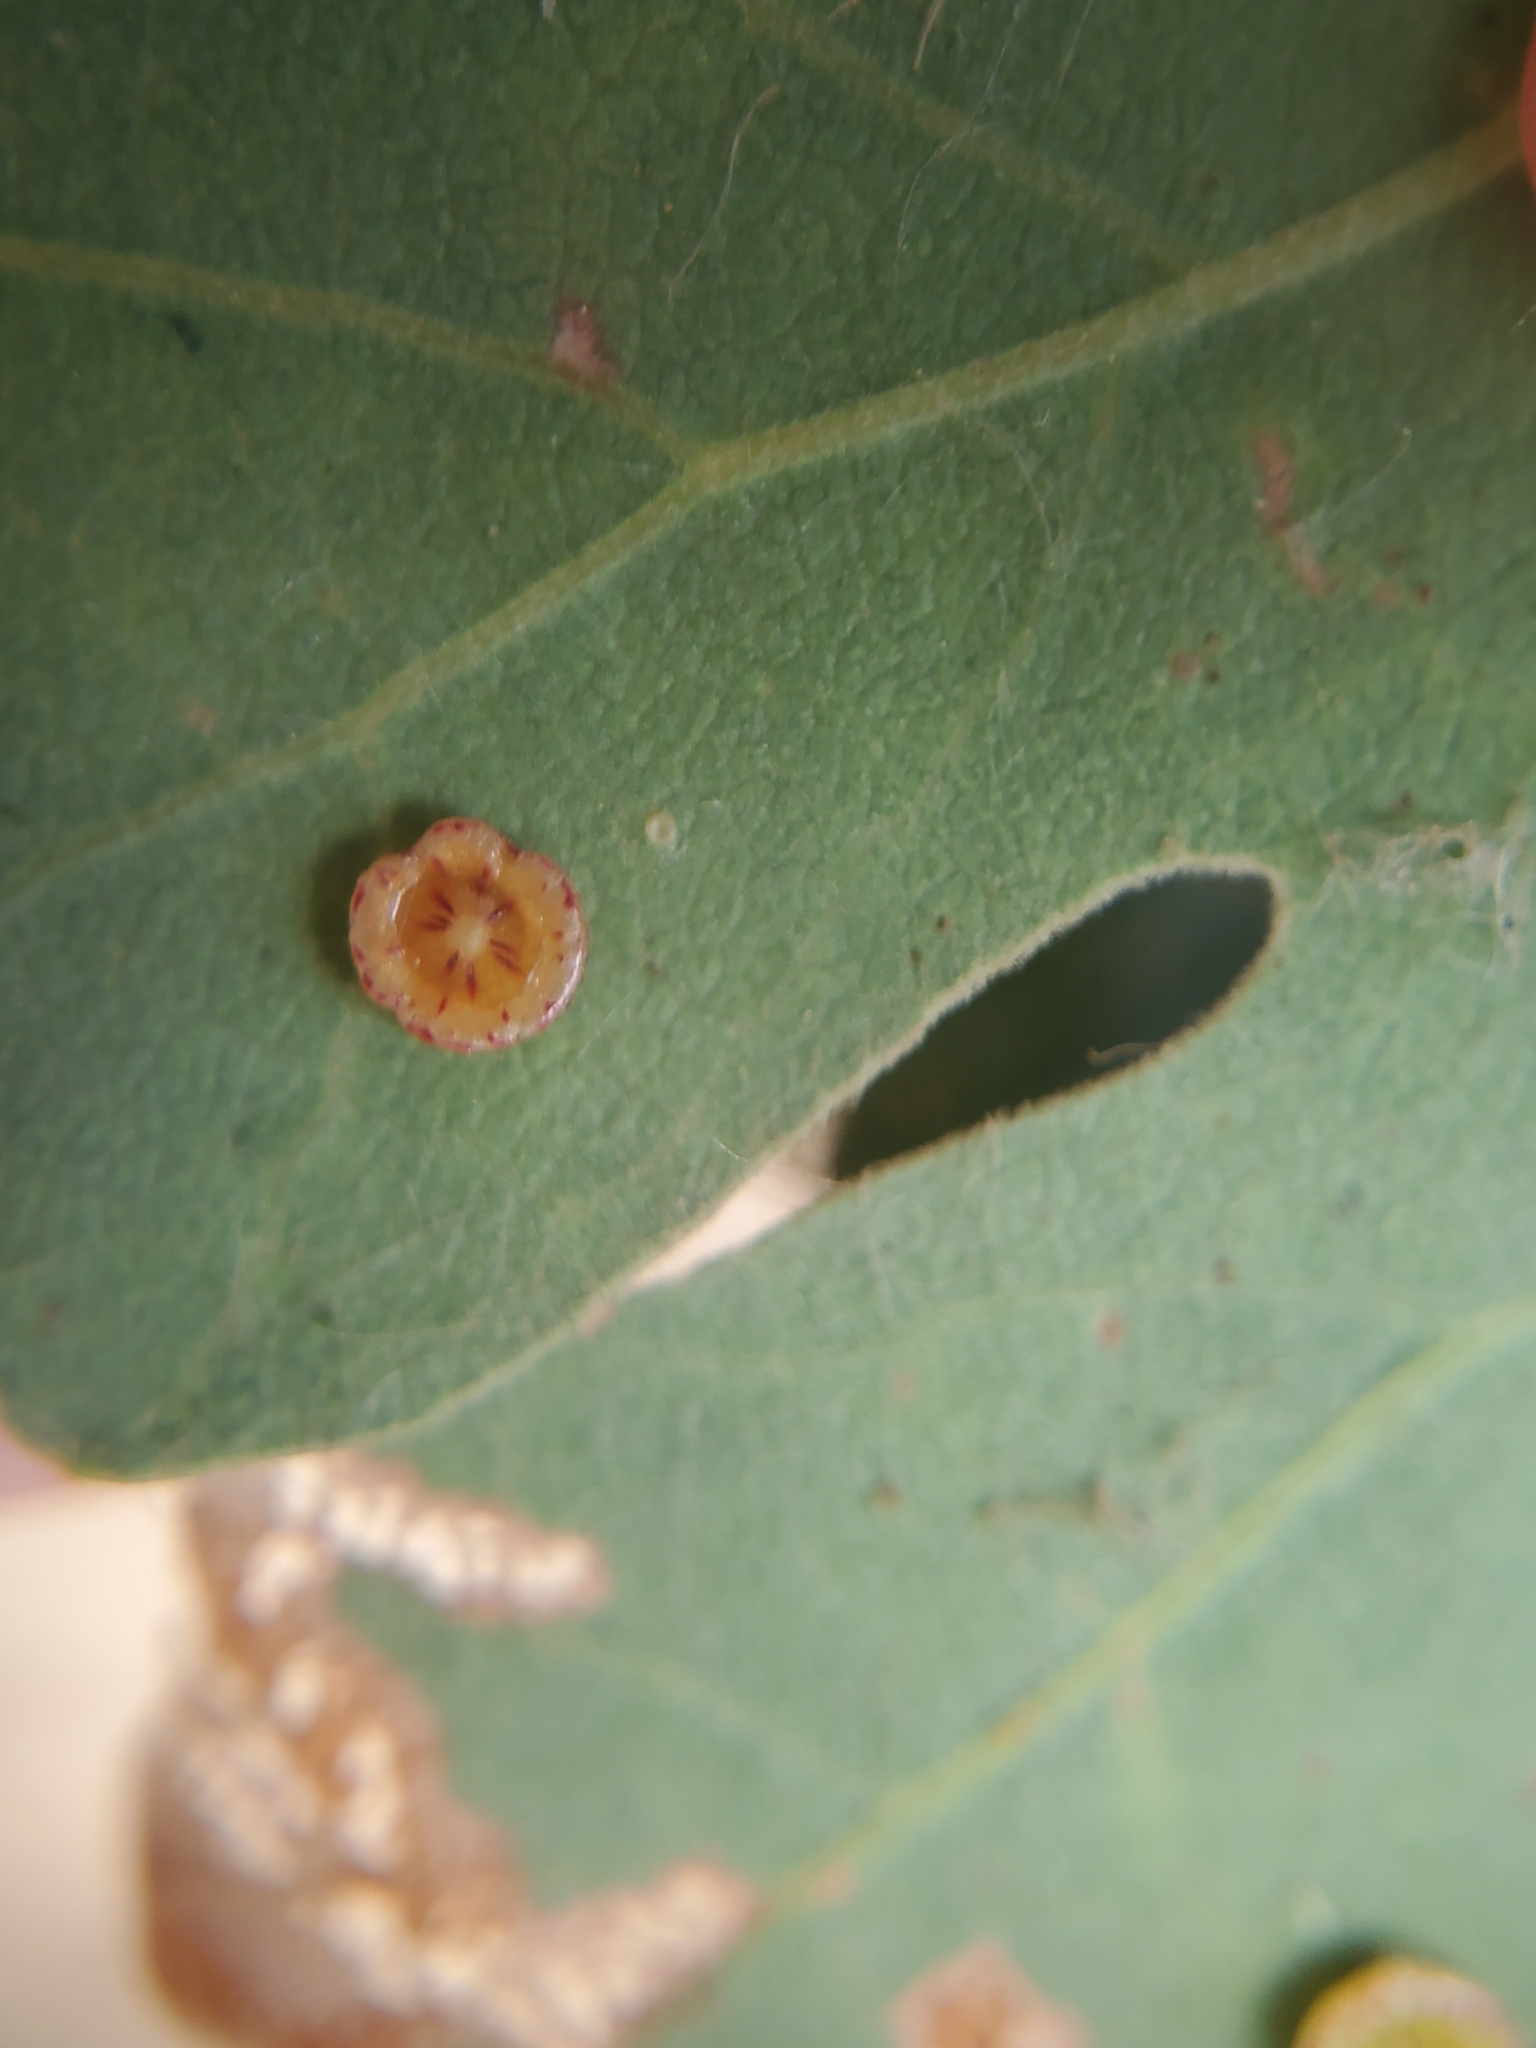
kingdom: Animalia
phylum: Arthropoda
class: Insecta
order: Hymenoptera
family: Cynipidae
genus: Andricus
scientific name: Andricus
